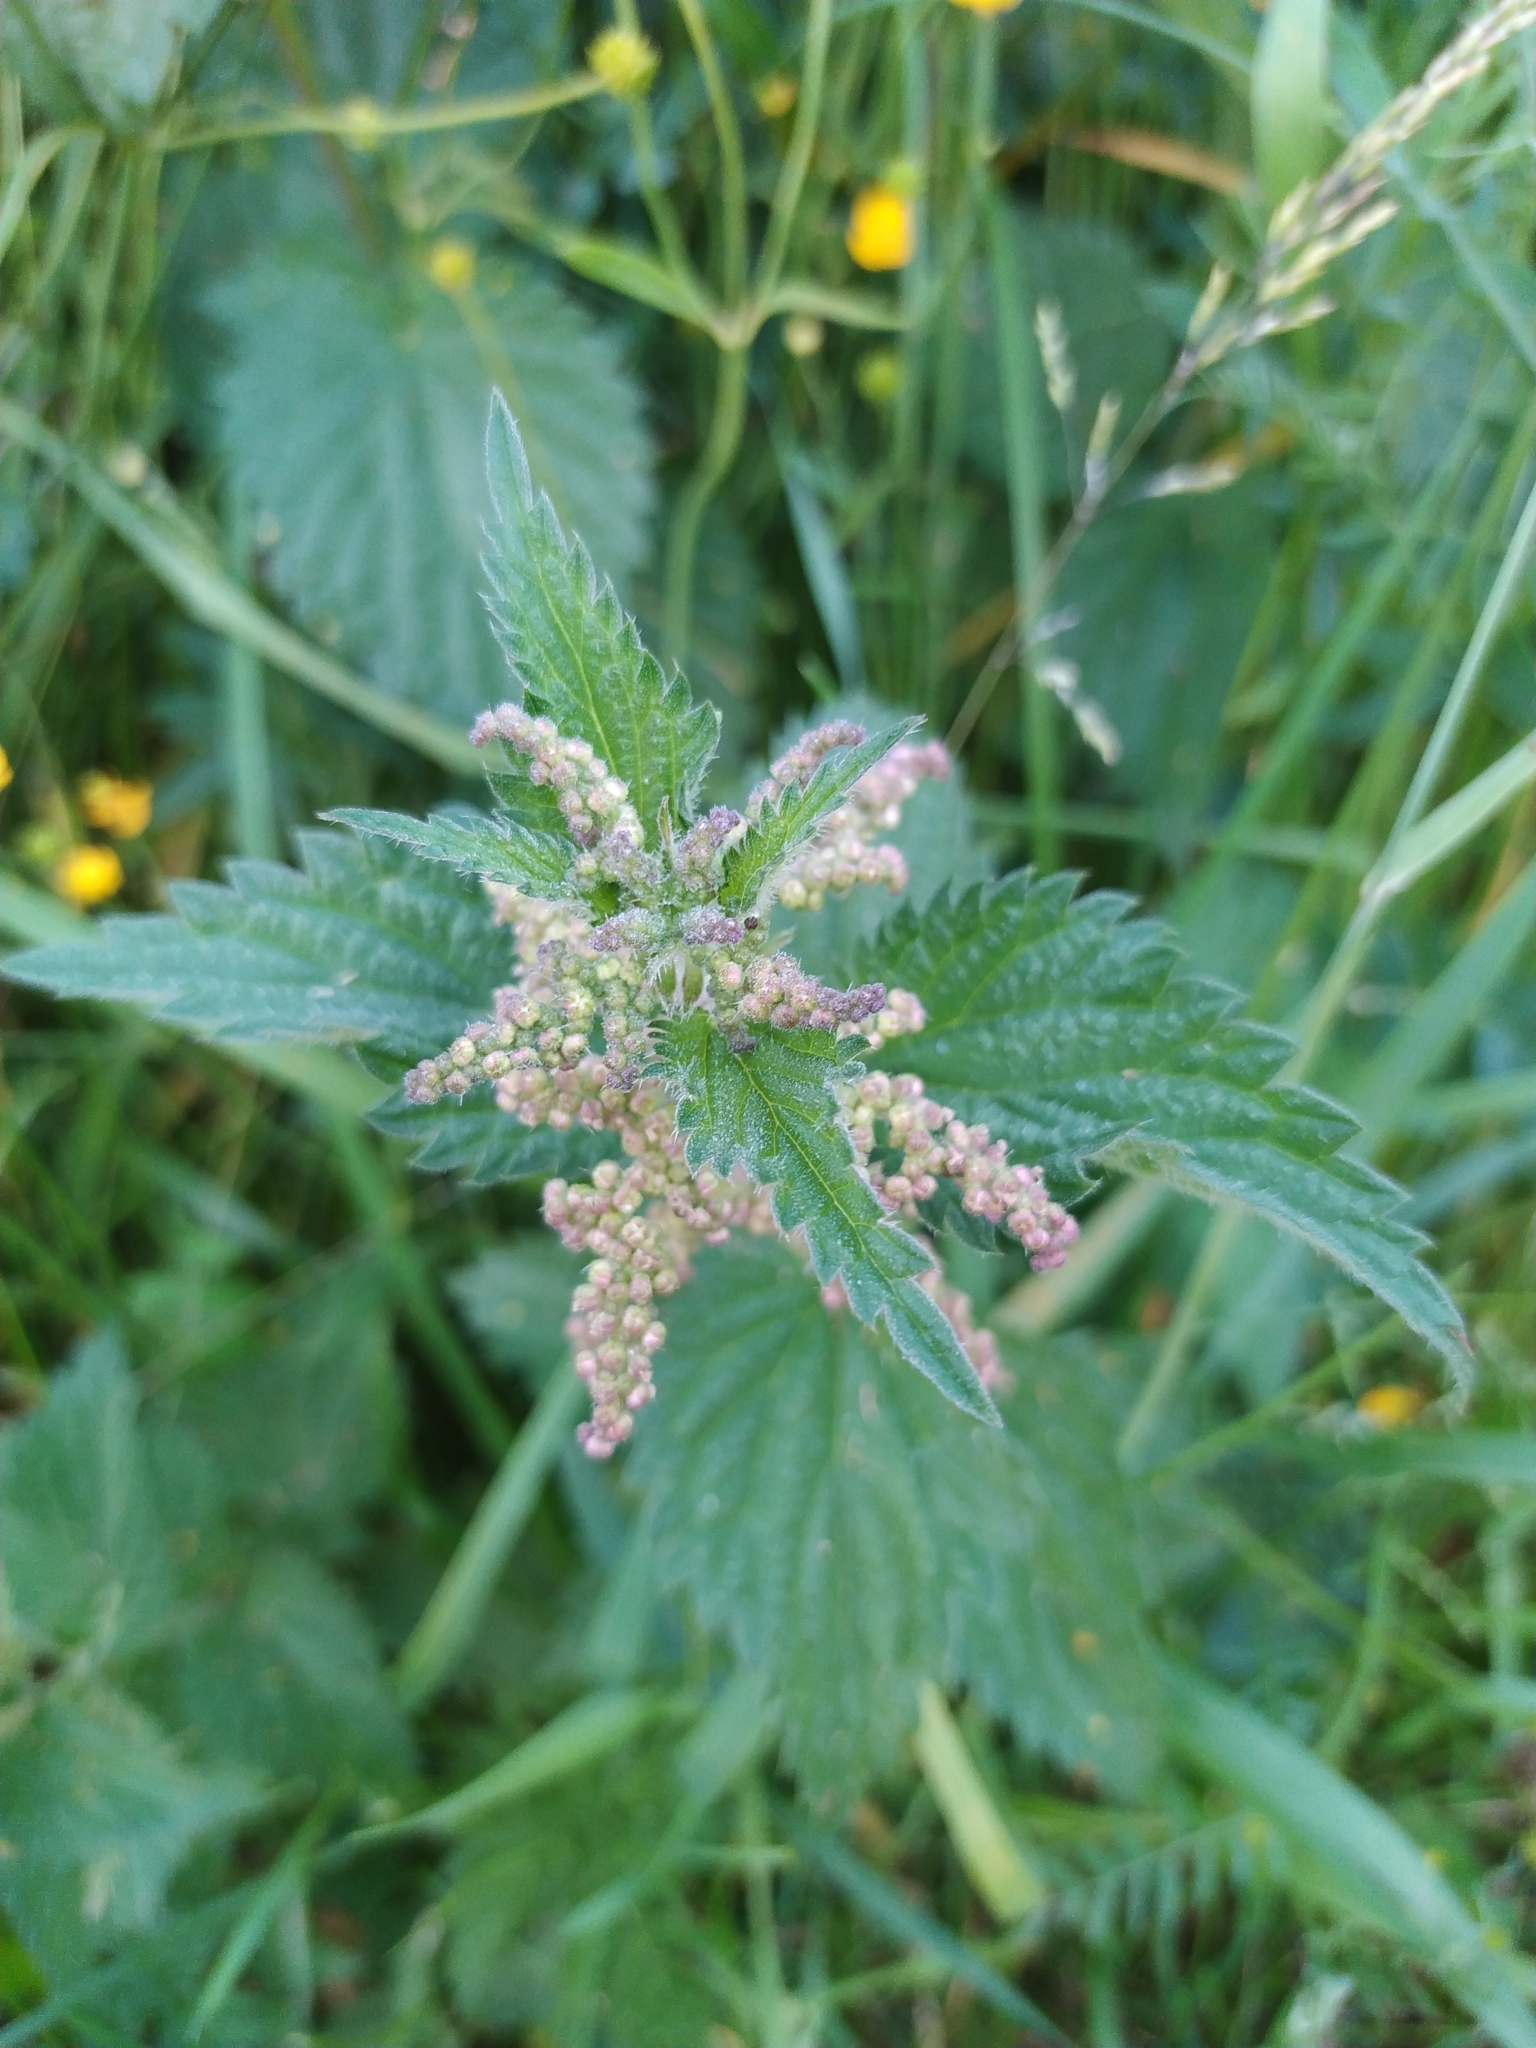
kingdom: Plantae
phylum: Tracheophyta
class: Magnoliopsida
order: Rosales
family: Urticaceae
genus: Urtica
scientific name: Urtica dioica
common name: Common nettle
